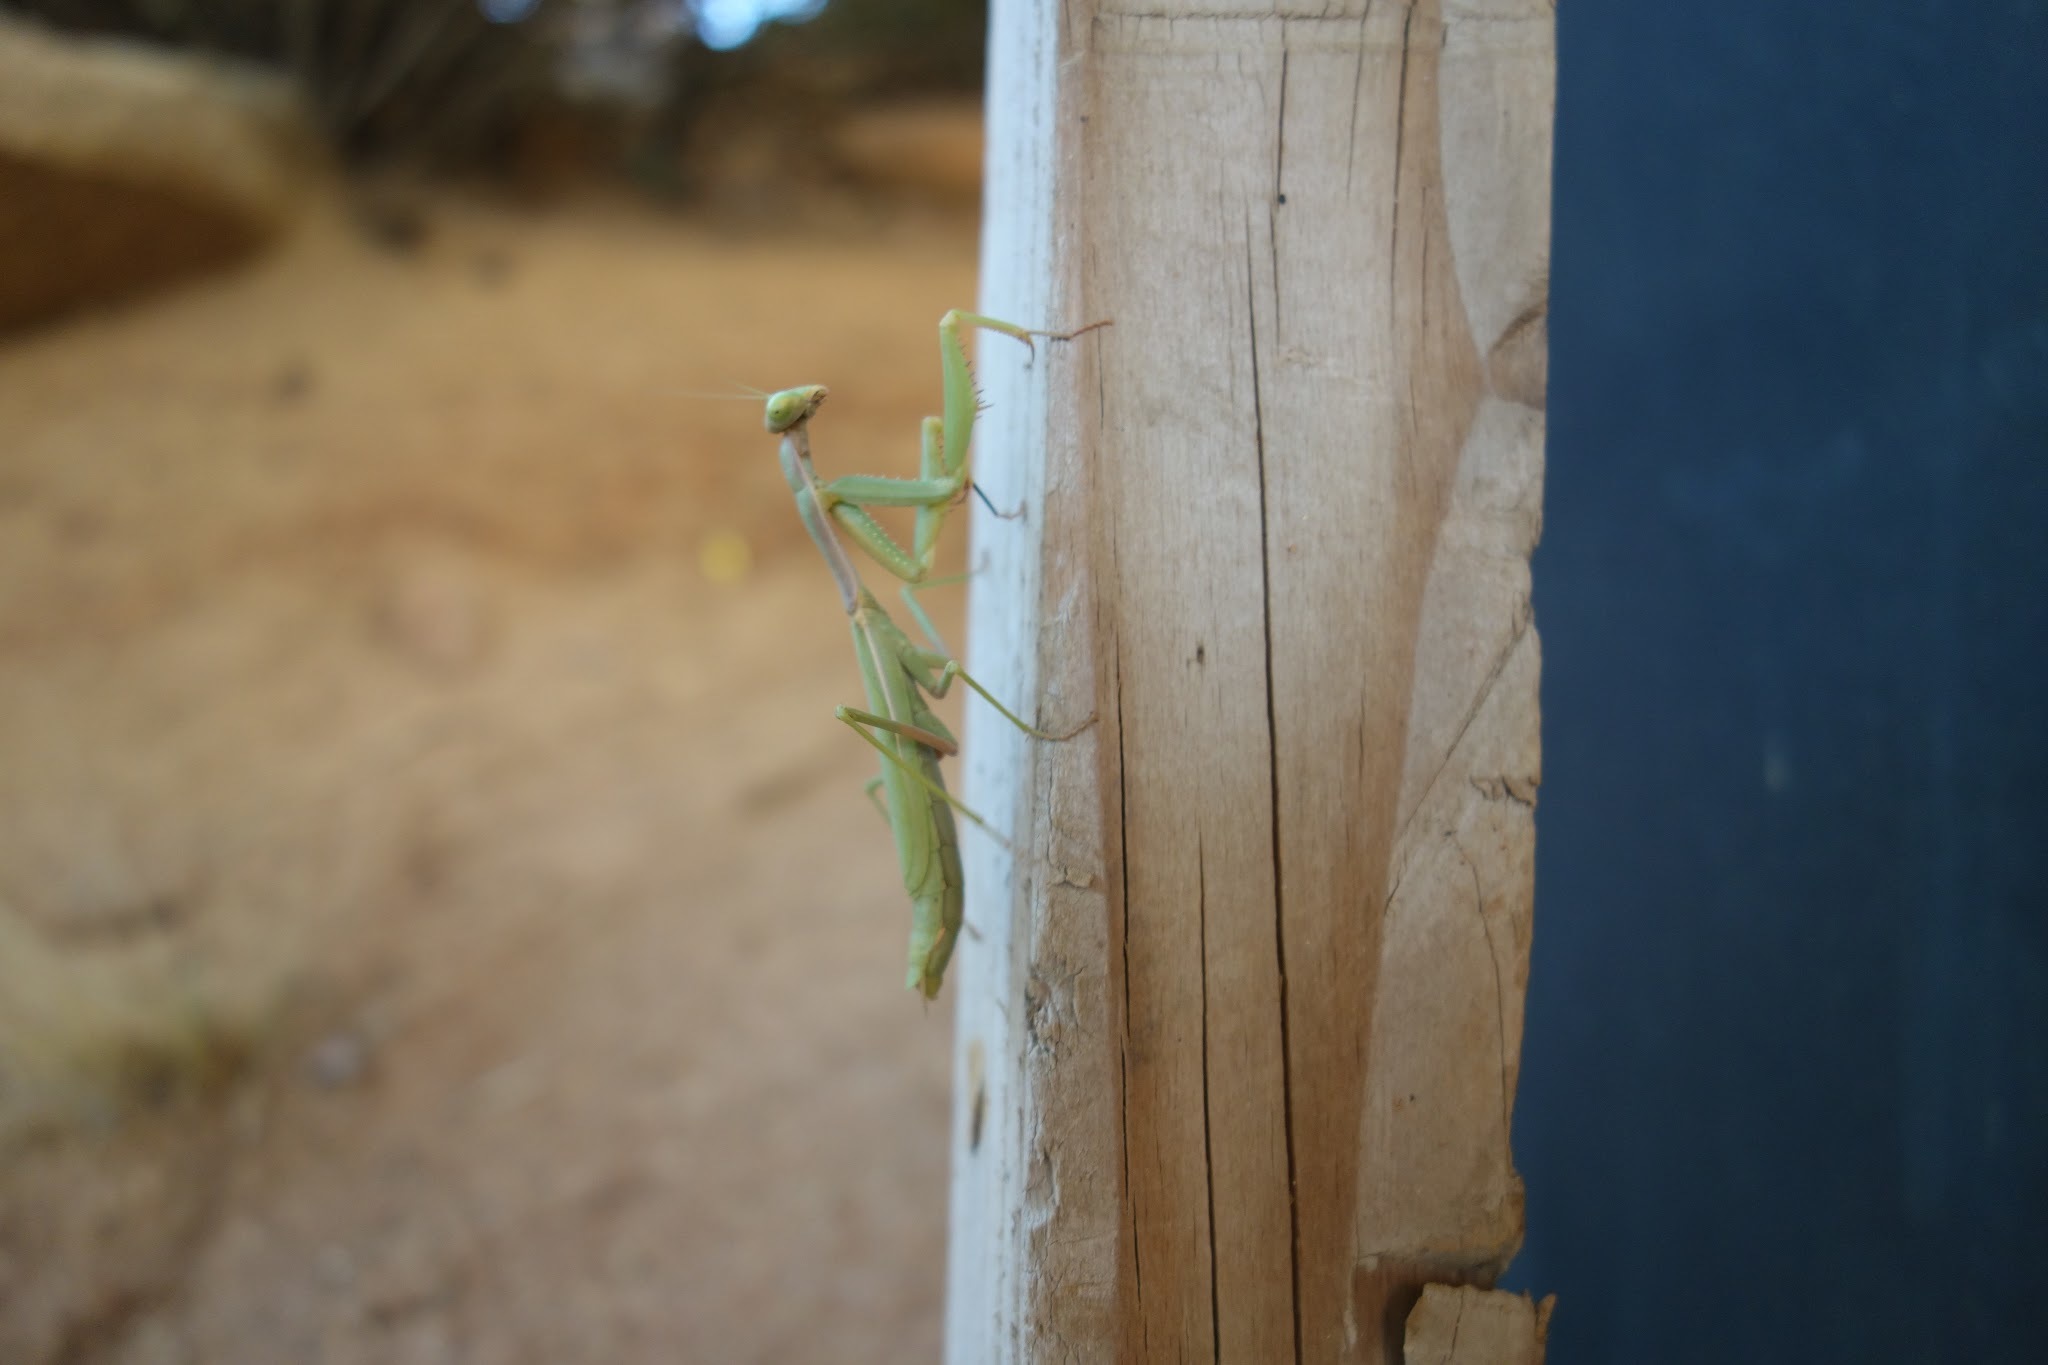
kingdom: Animalia
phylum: Arthropoda
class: Insecta
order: Mantodea
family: Eremiaphilidae
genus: Iris
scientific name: Iris oratoria
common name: Mediterranean mantis
